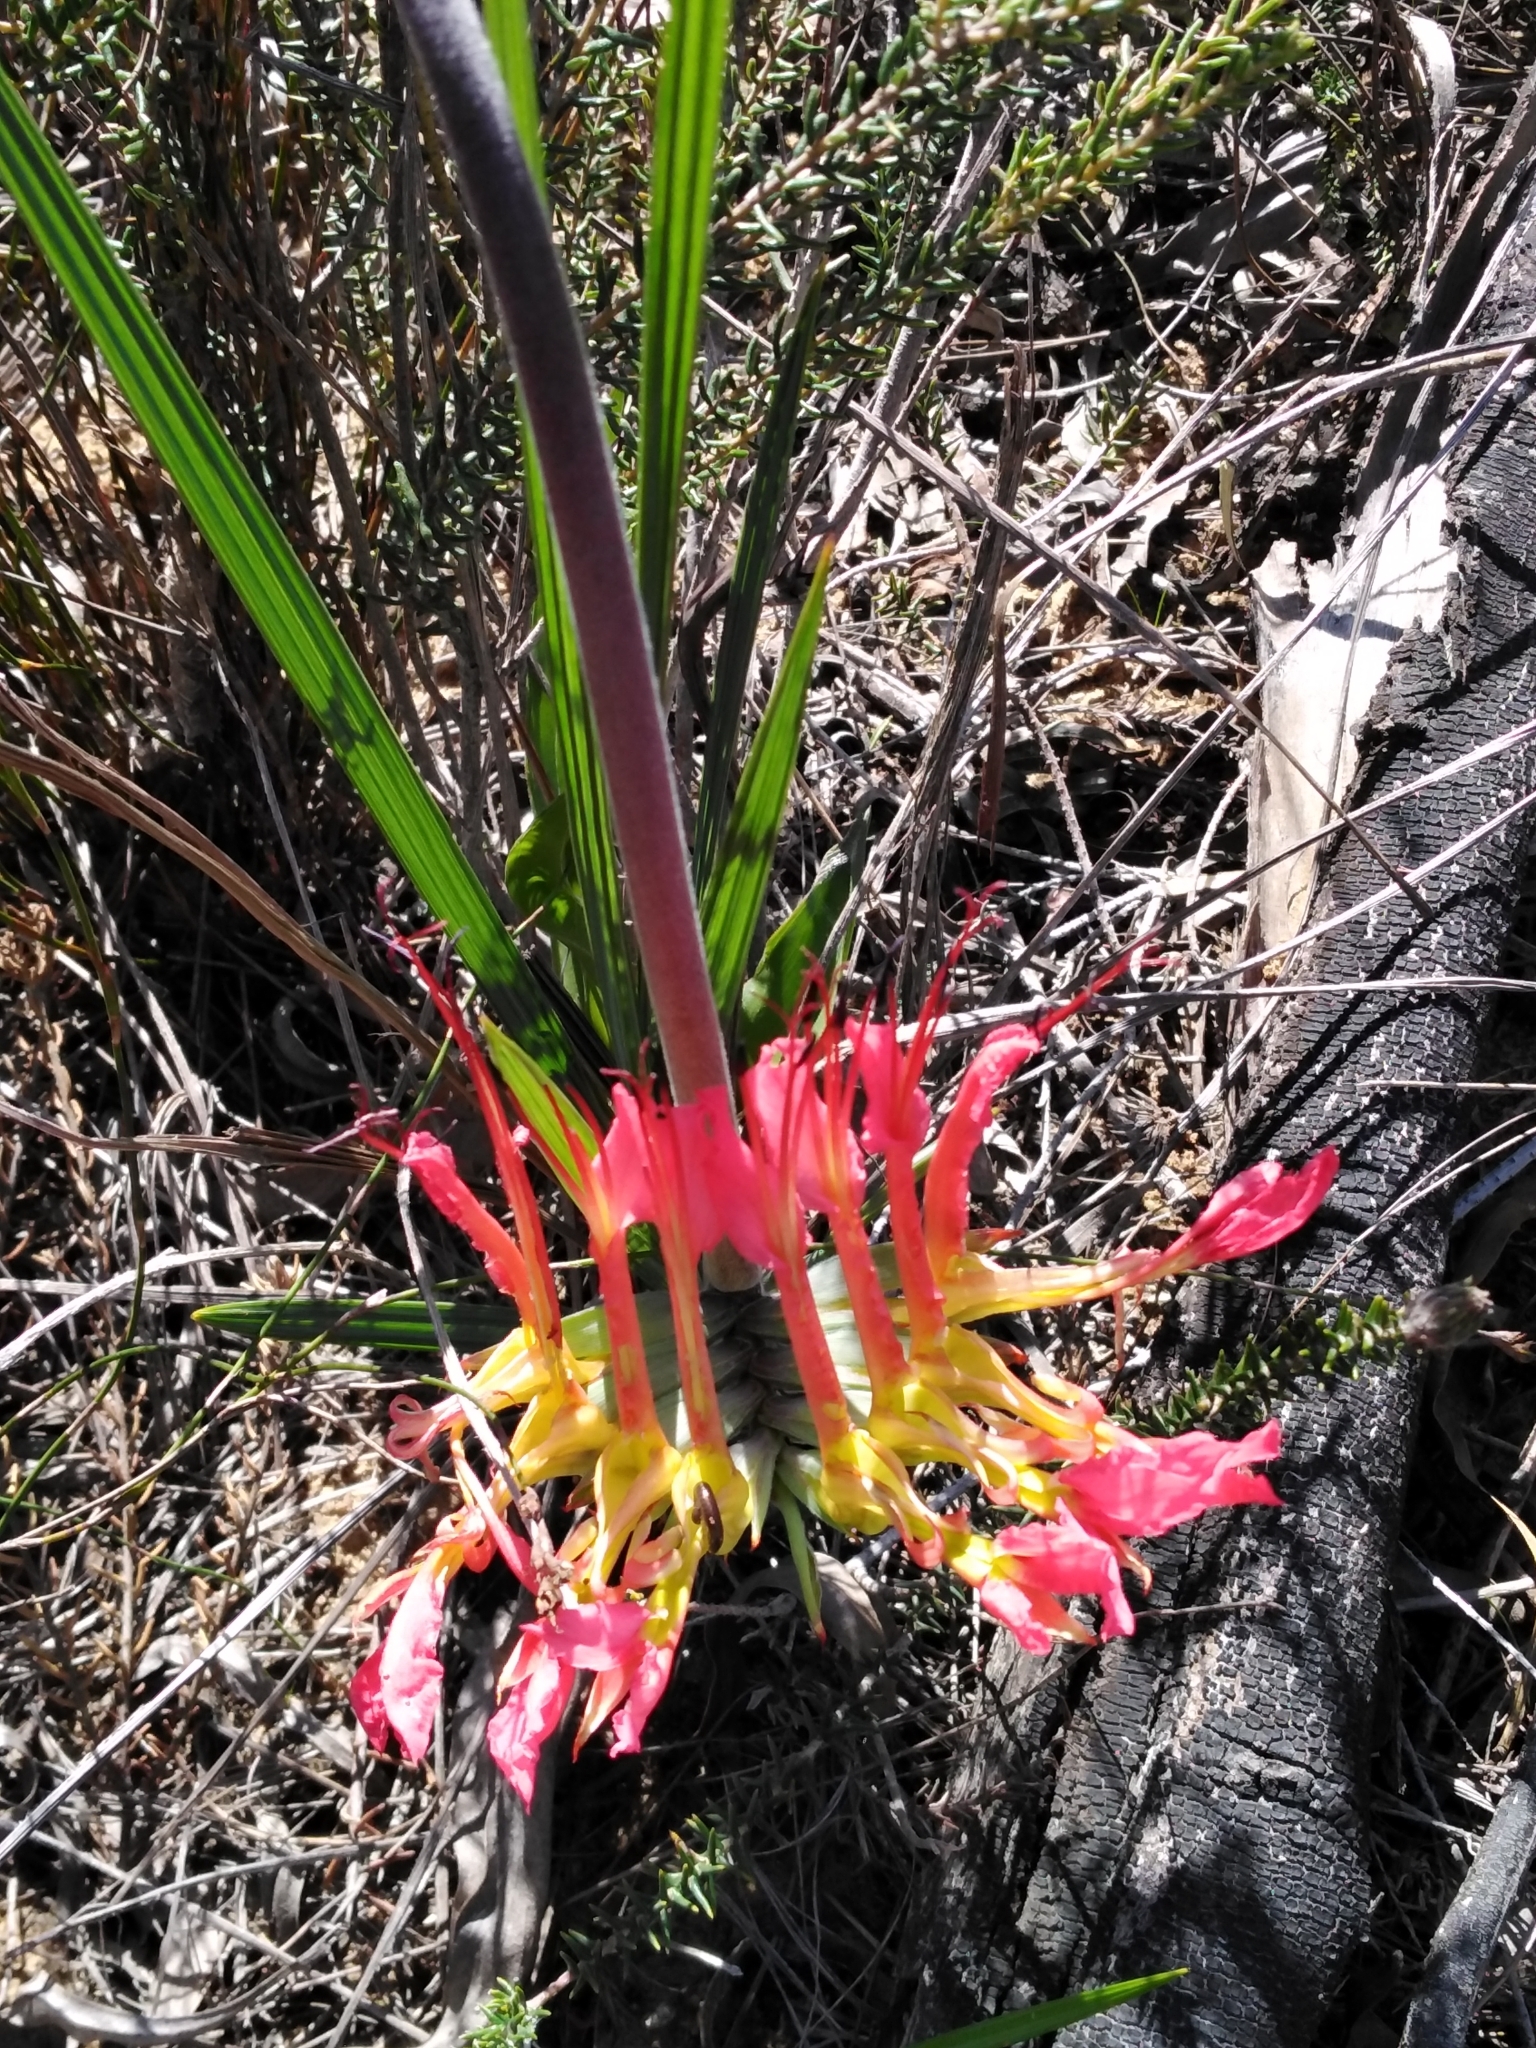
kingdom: Plantae
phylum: Tracheophyta
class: Liliopsida
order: Asparagales
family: Iridaceae
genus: Babiana
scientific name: Babiana ringens
